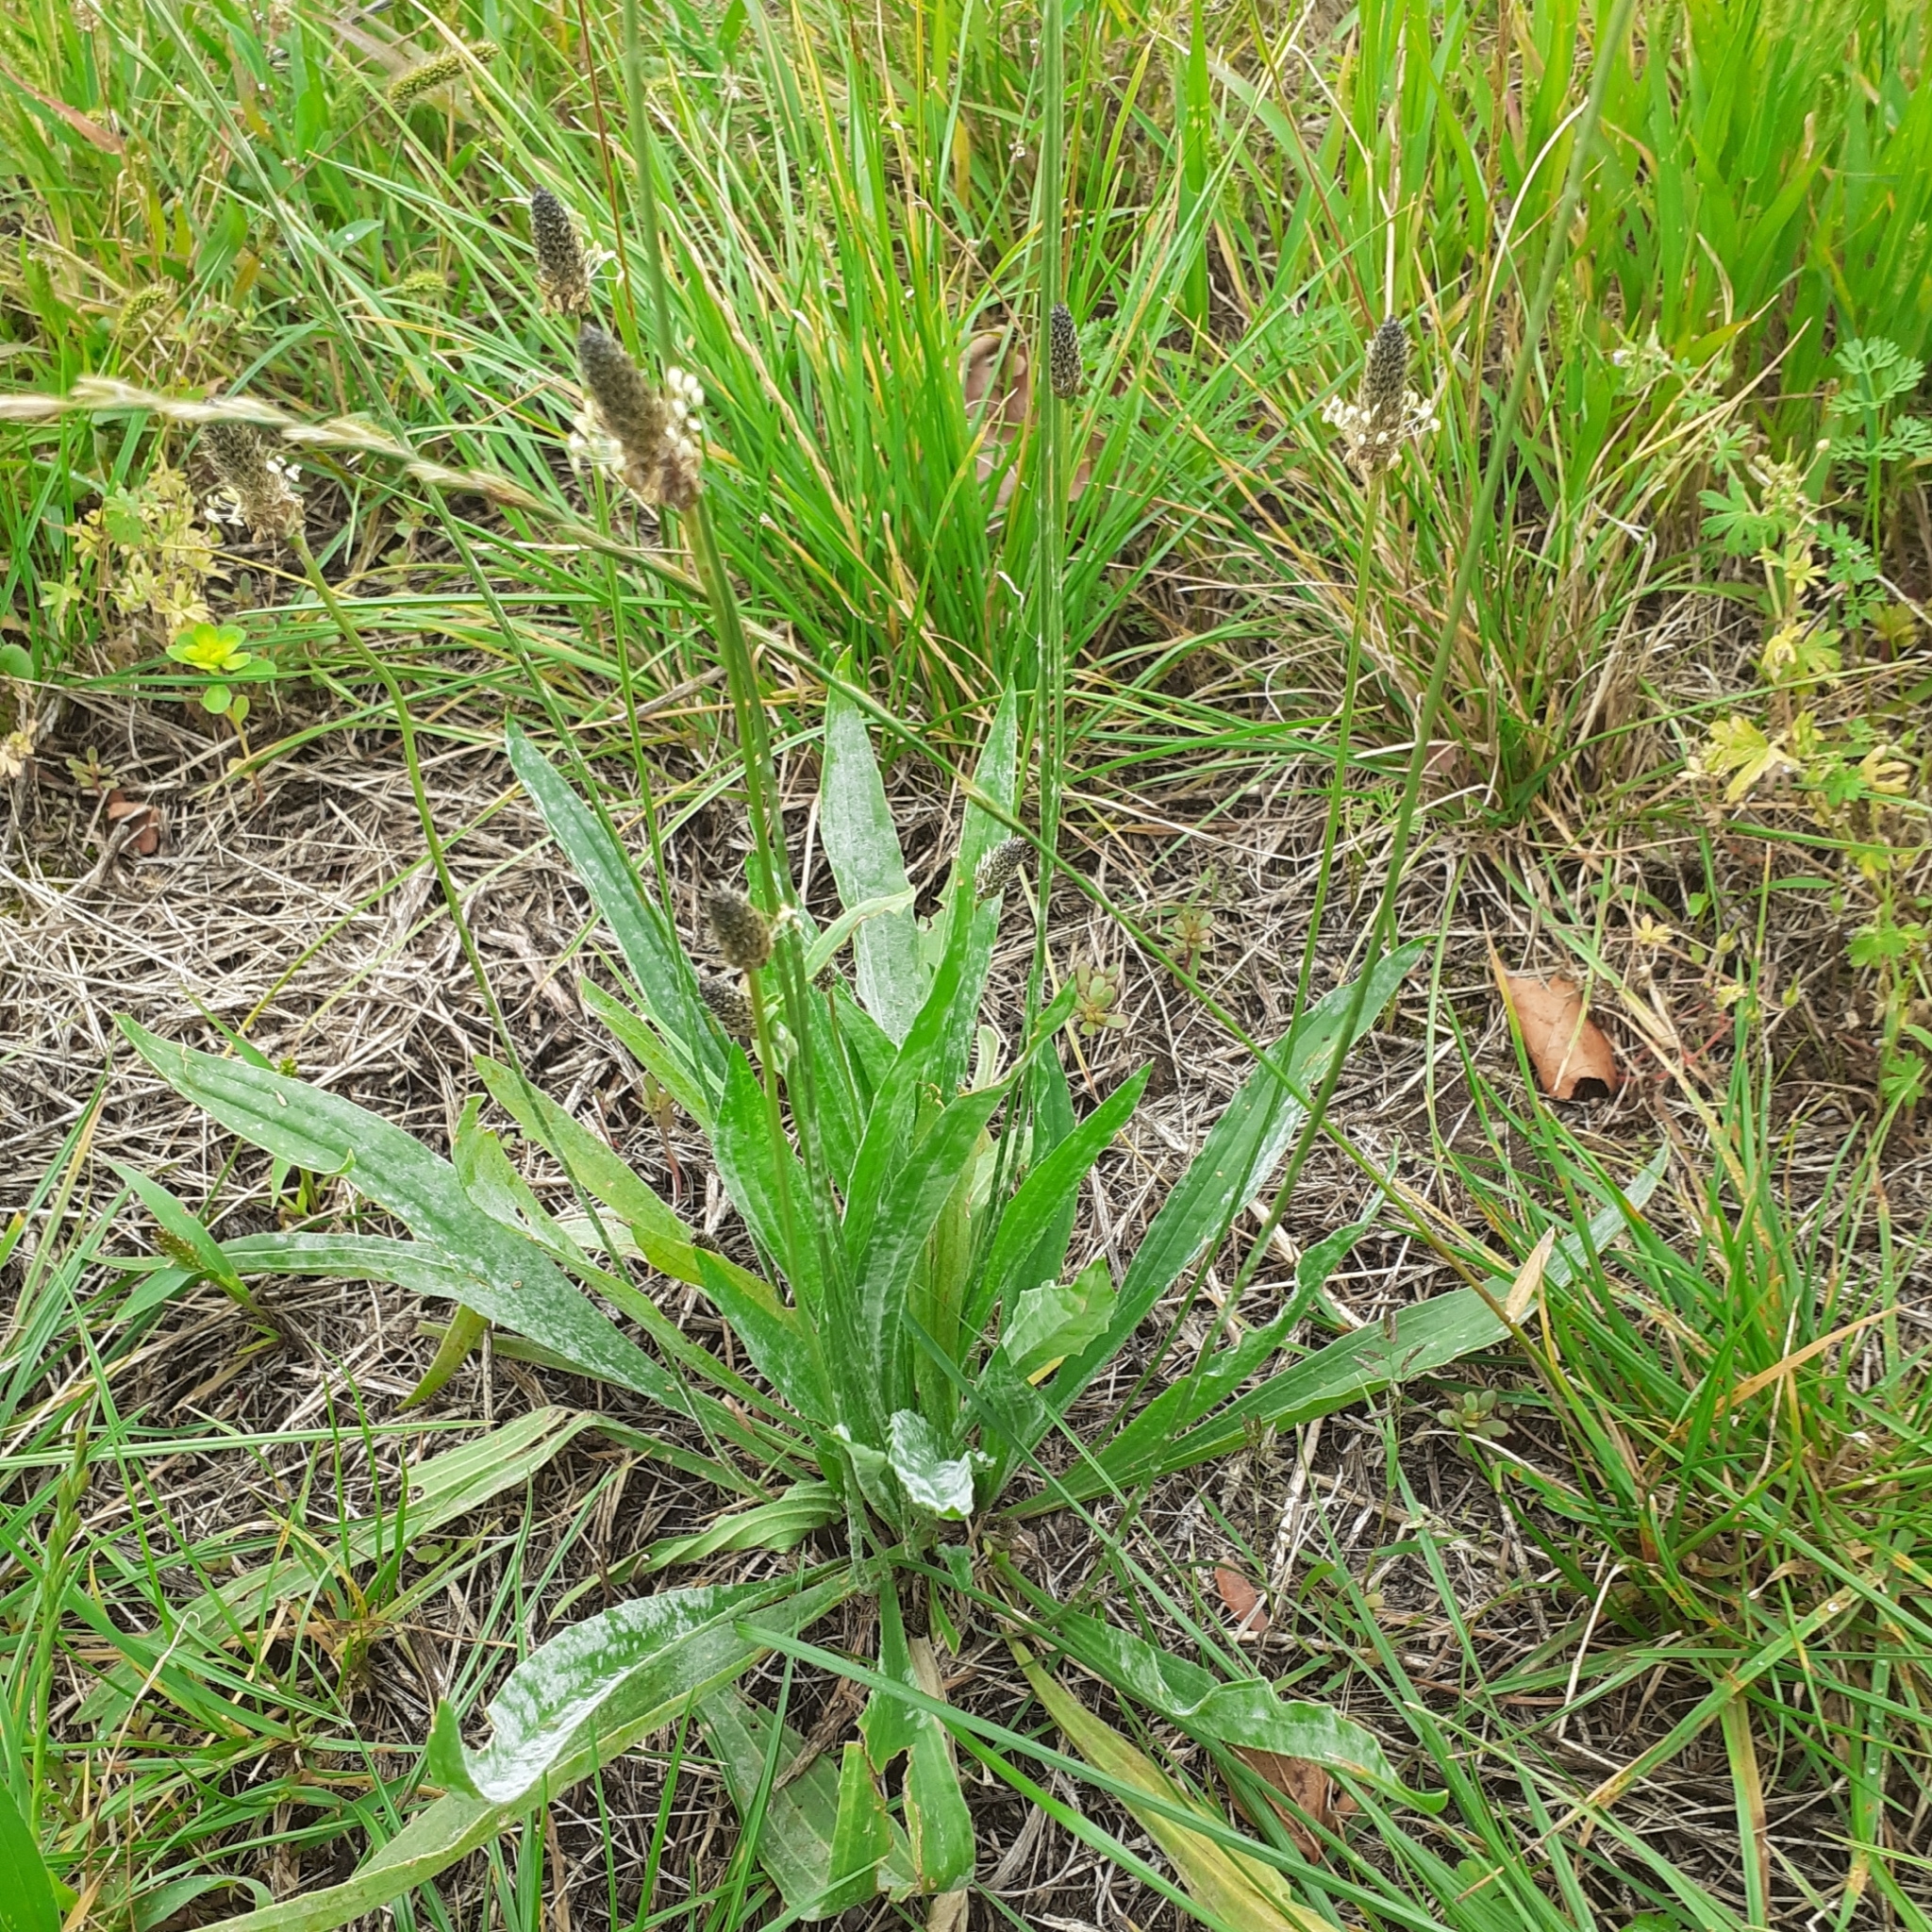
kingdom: Plantae
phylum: Tracheophyta
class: Magnoliopsida
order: Lamiales
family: Plantaginaceae
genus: Plantago
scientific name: Plantago lanceolata
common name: Ribwort plantain
